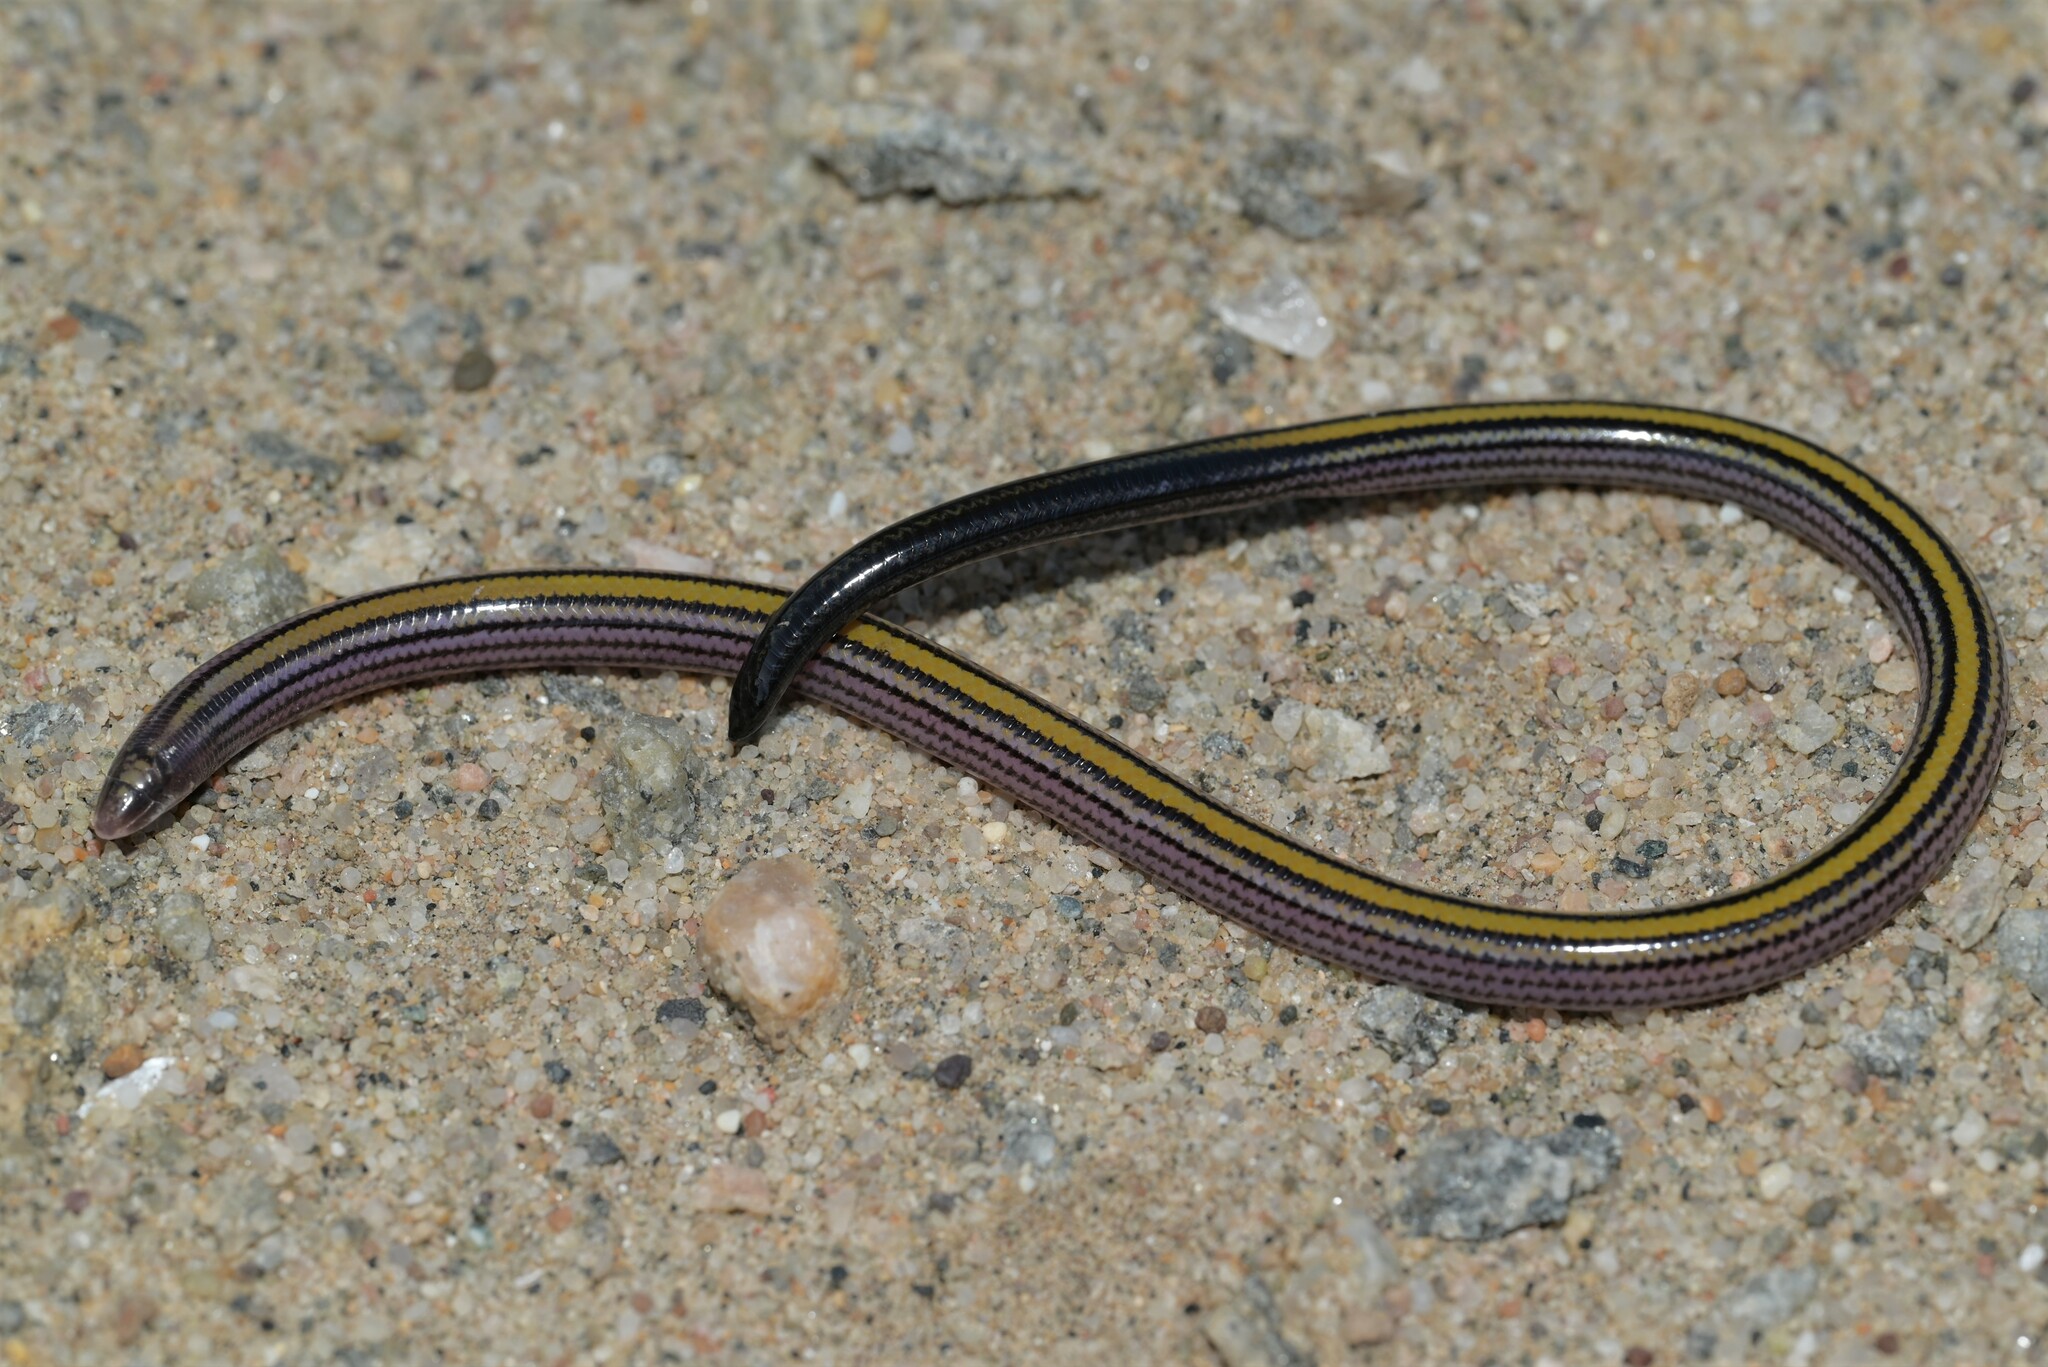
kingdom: Animalia
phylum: Chordata
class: Squamata
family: Scincidae
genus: Typhlosaurus
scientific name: Typhlosaurus meyeri
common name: Meyer's blind legless skink
